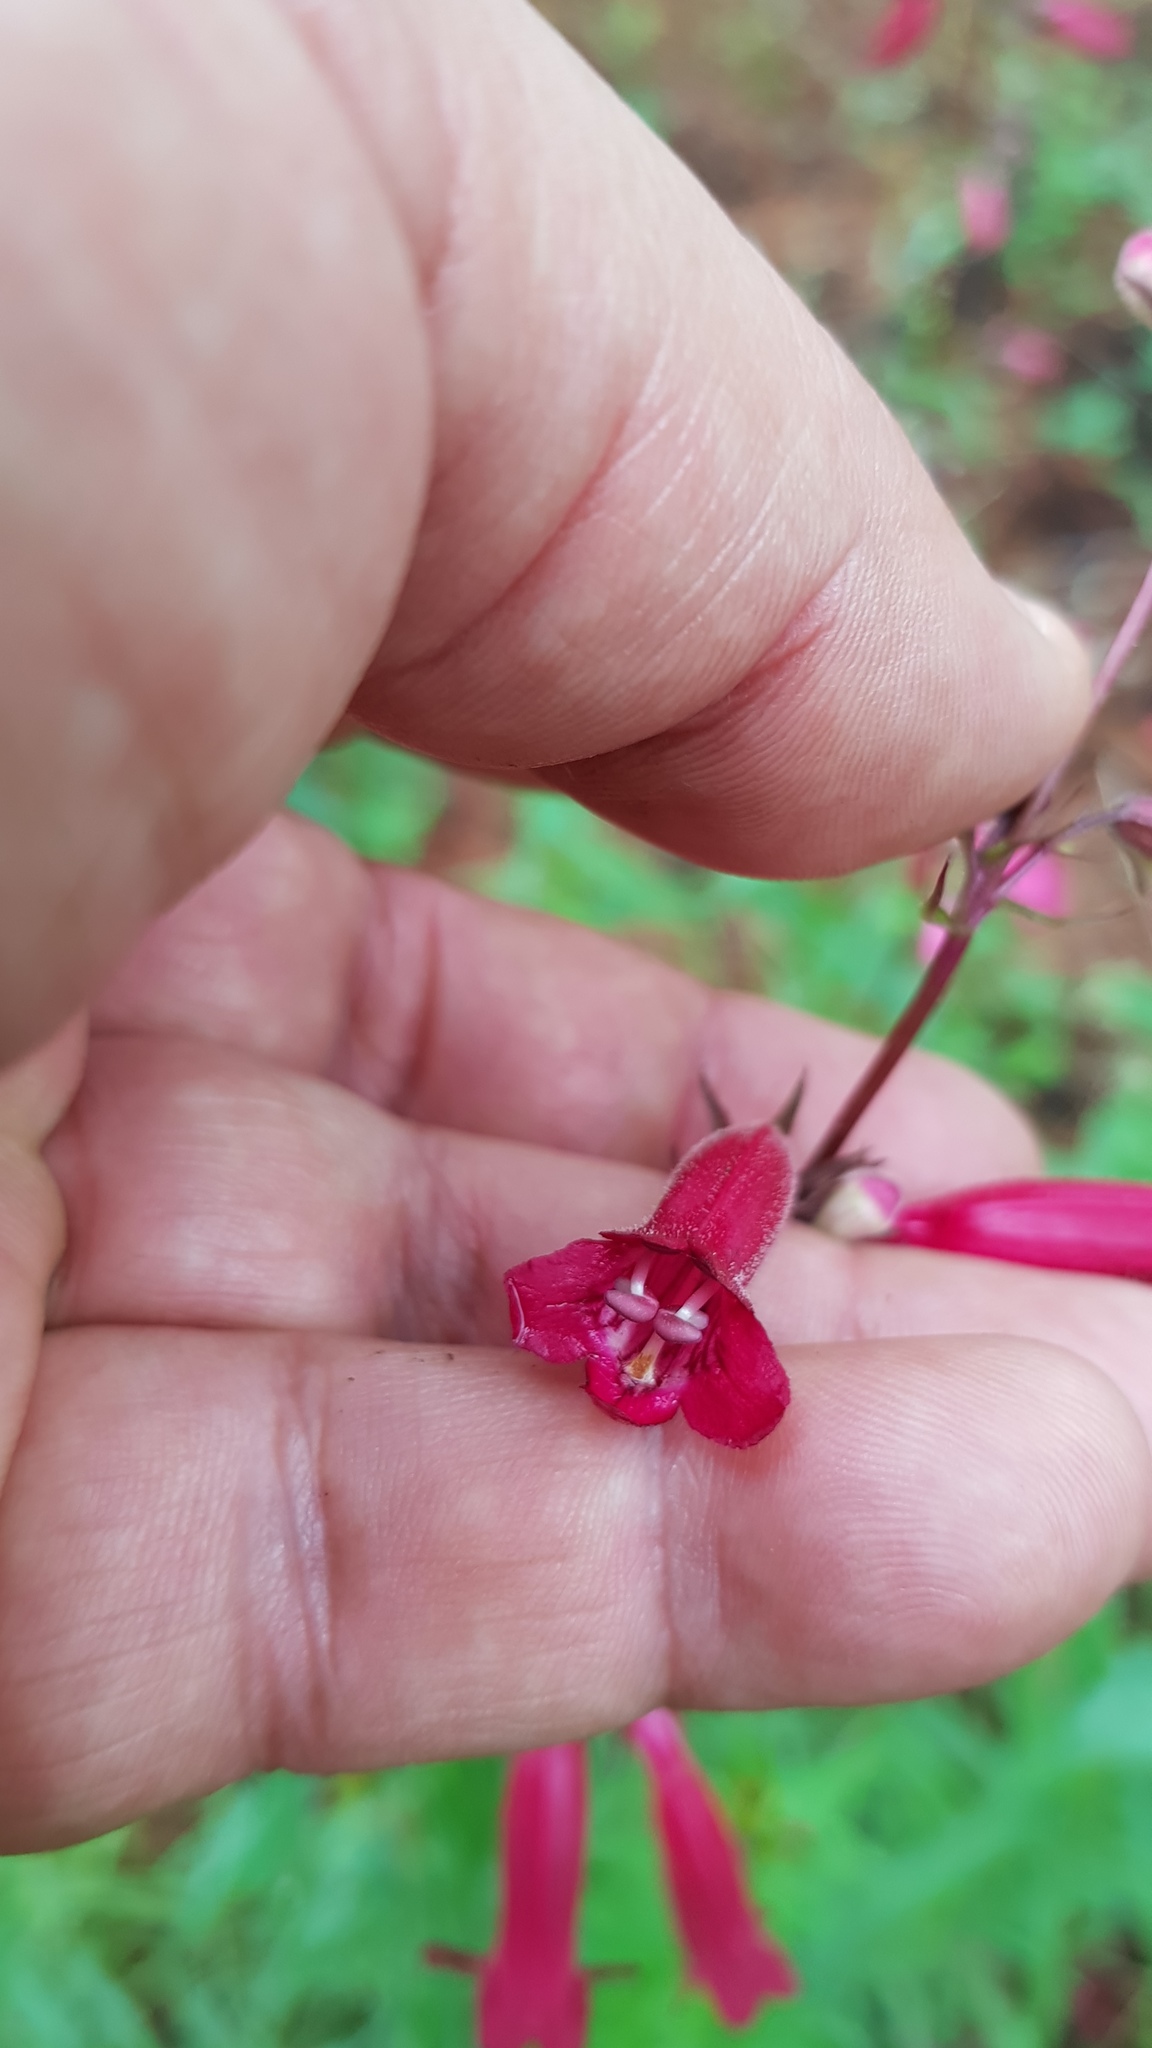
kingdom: Plantae
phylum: Tracheophyta
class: Magnoliopsida
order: Lamiales
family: Plantaginaceae
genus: Penstemon
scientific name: Penstemon roseus
